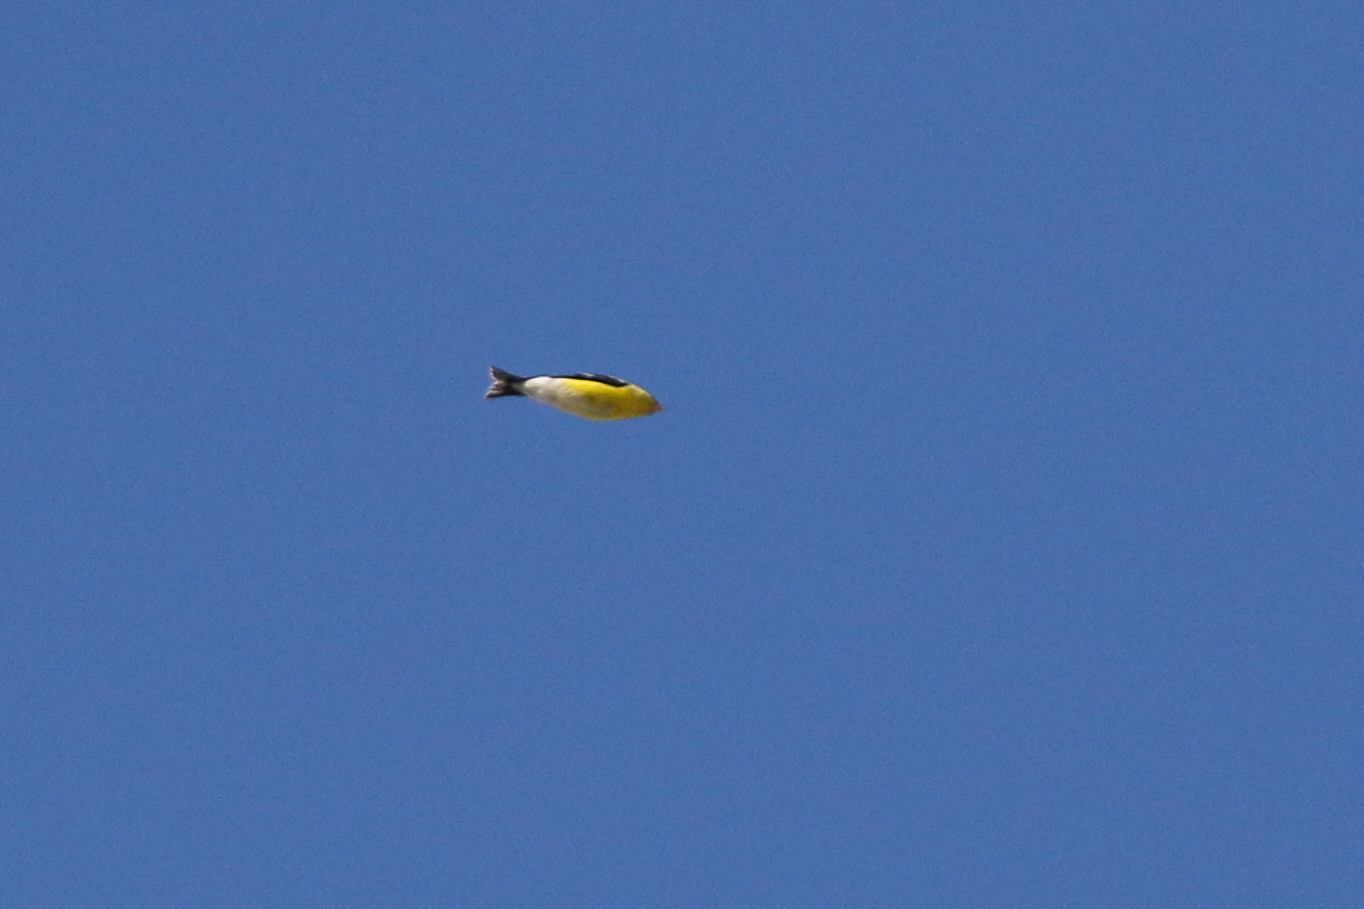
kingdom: Animalia
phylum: Chordata
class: Aves
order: Passeriformes
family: Fringillidae
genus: Spinus
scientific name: Spinus tristis
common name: American goldfinch
